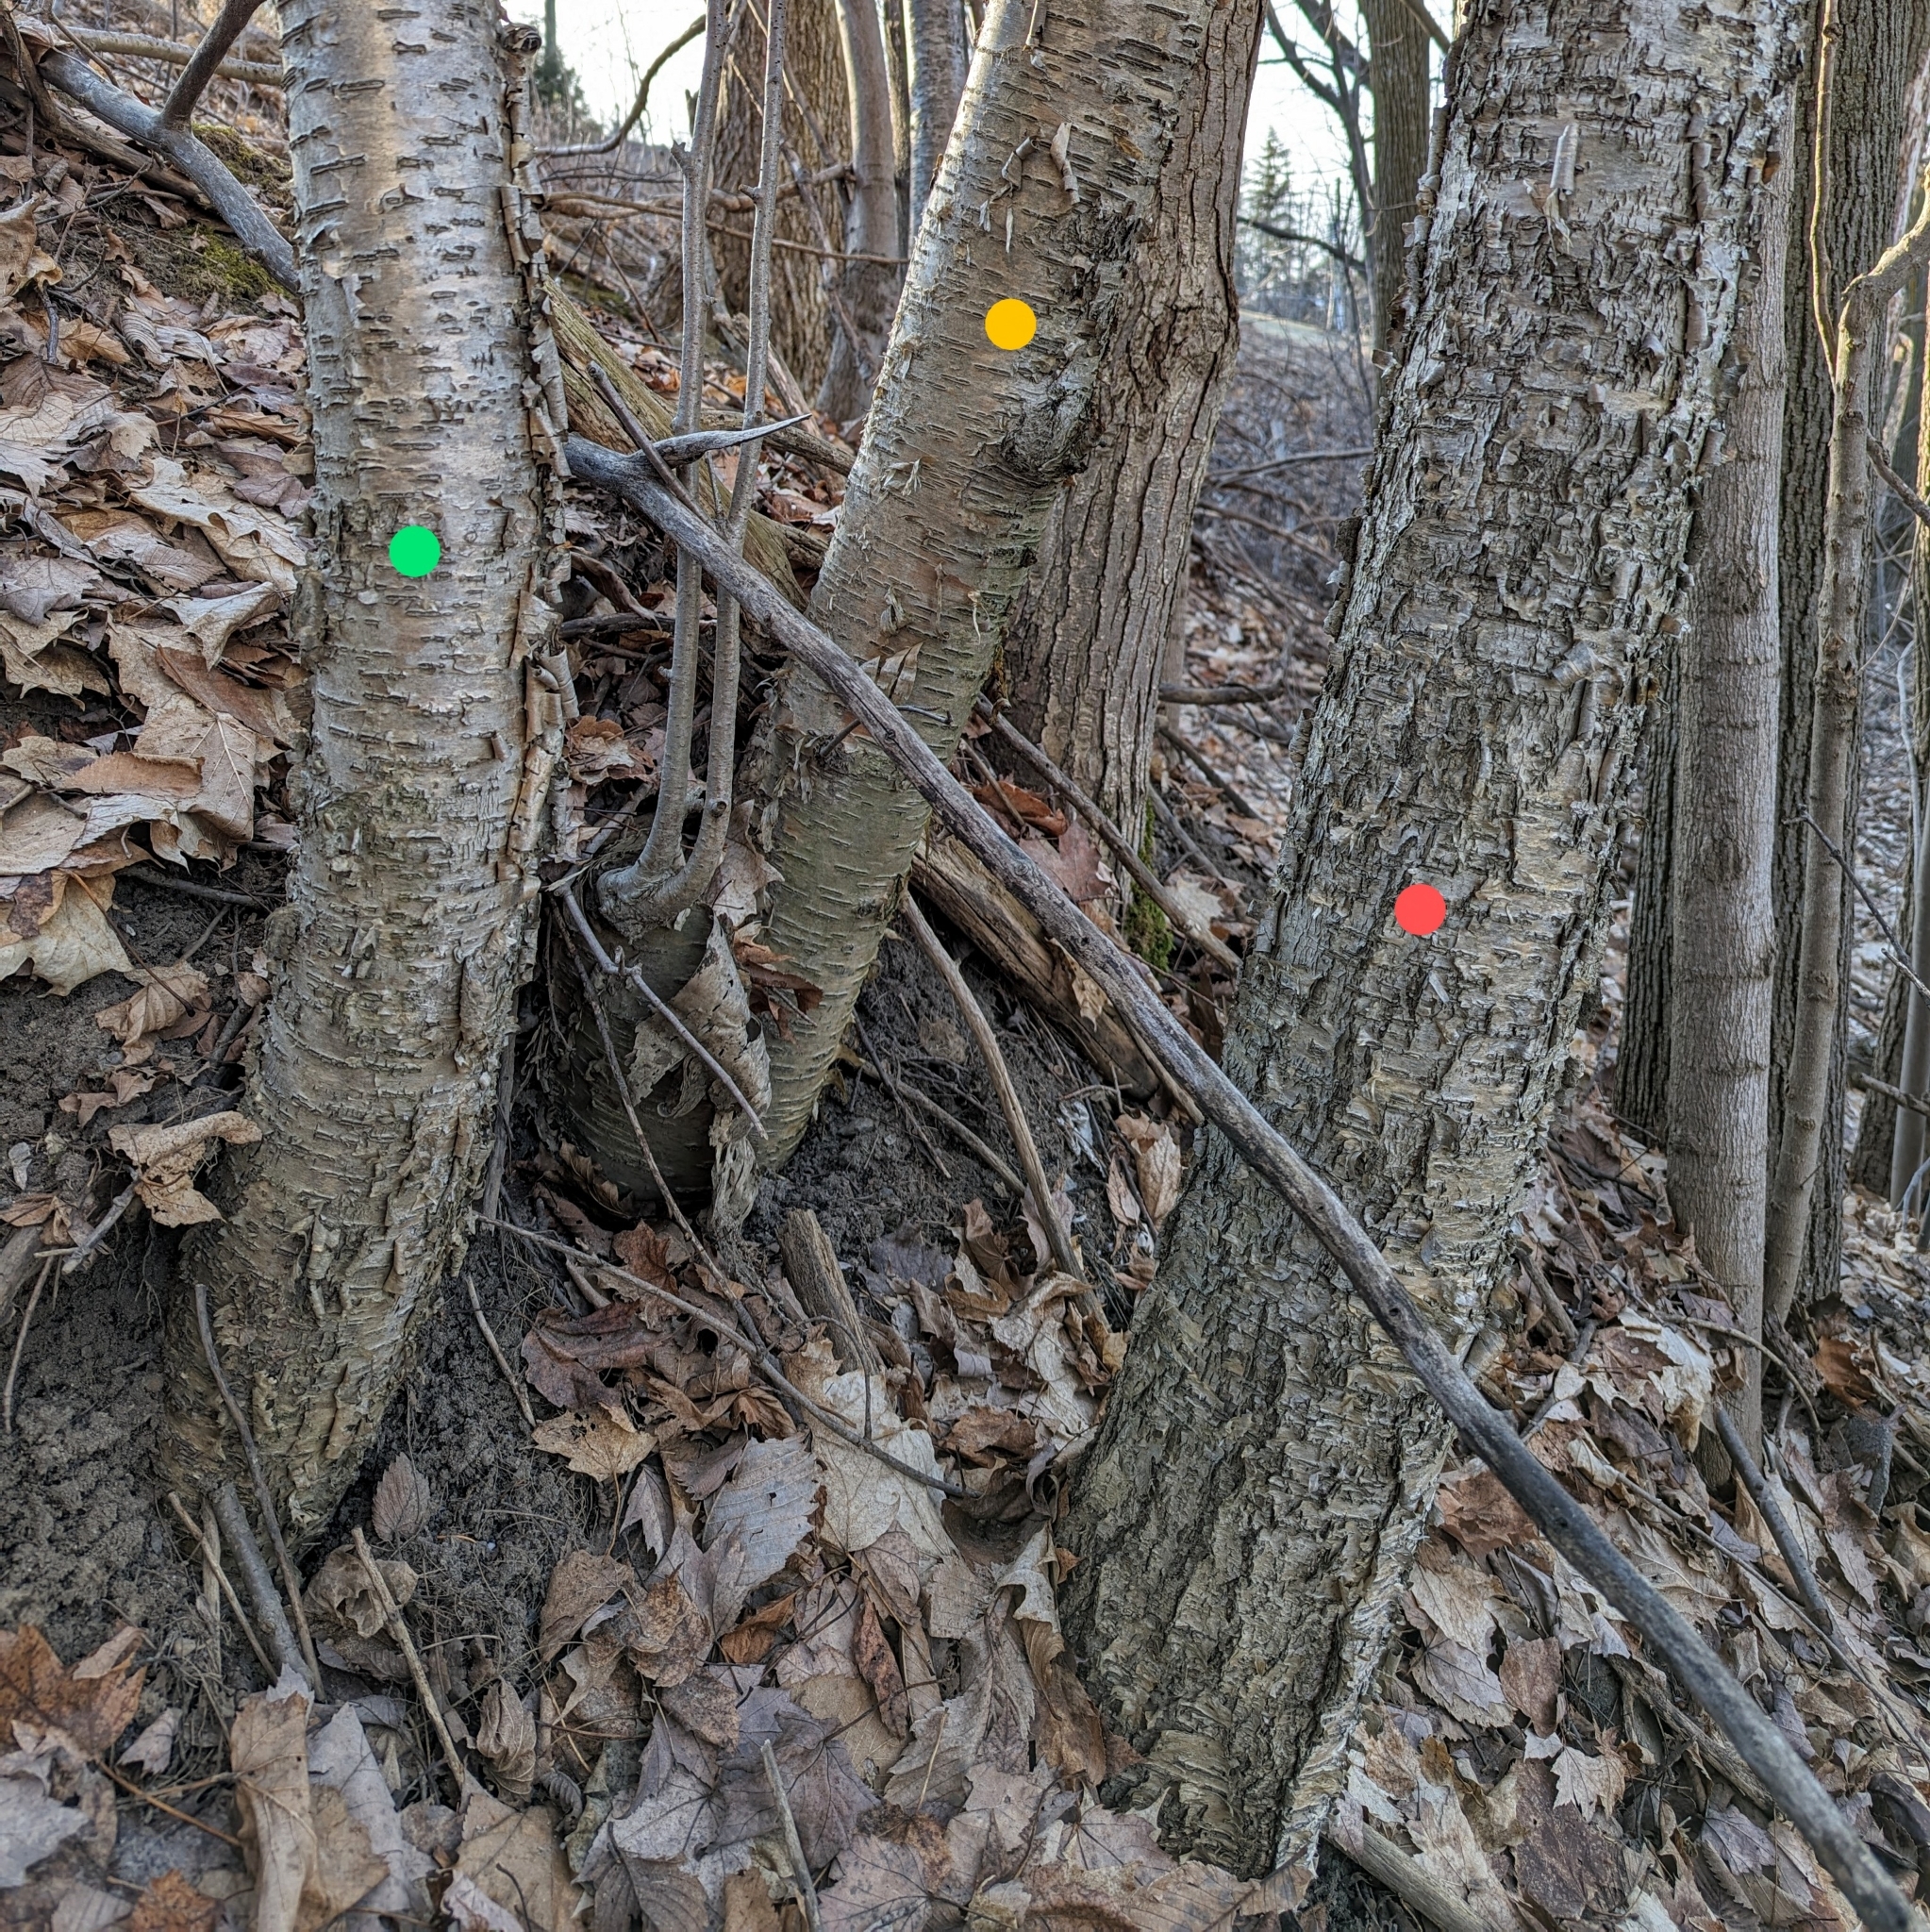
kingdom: Plantae
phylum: Tracheophyta
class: Magnoliopsida
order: Fagales
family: Betulaceae
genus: Betula
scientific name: Betula alleghaniensis
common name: Yellow birch
